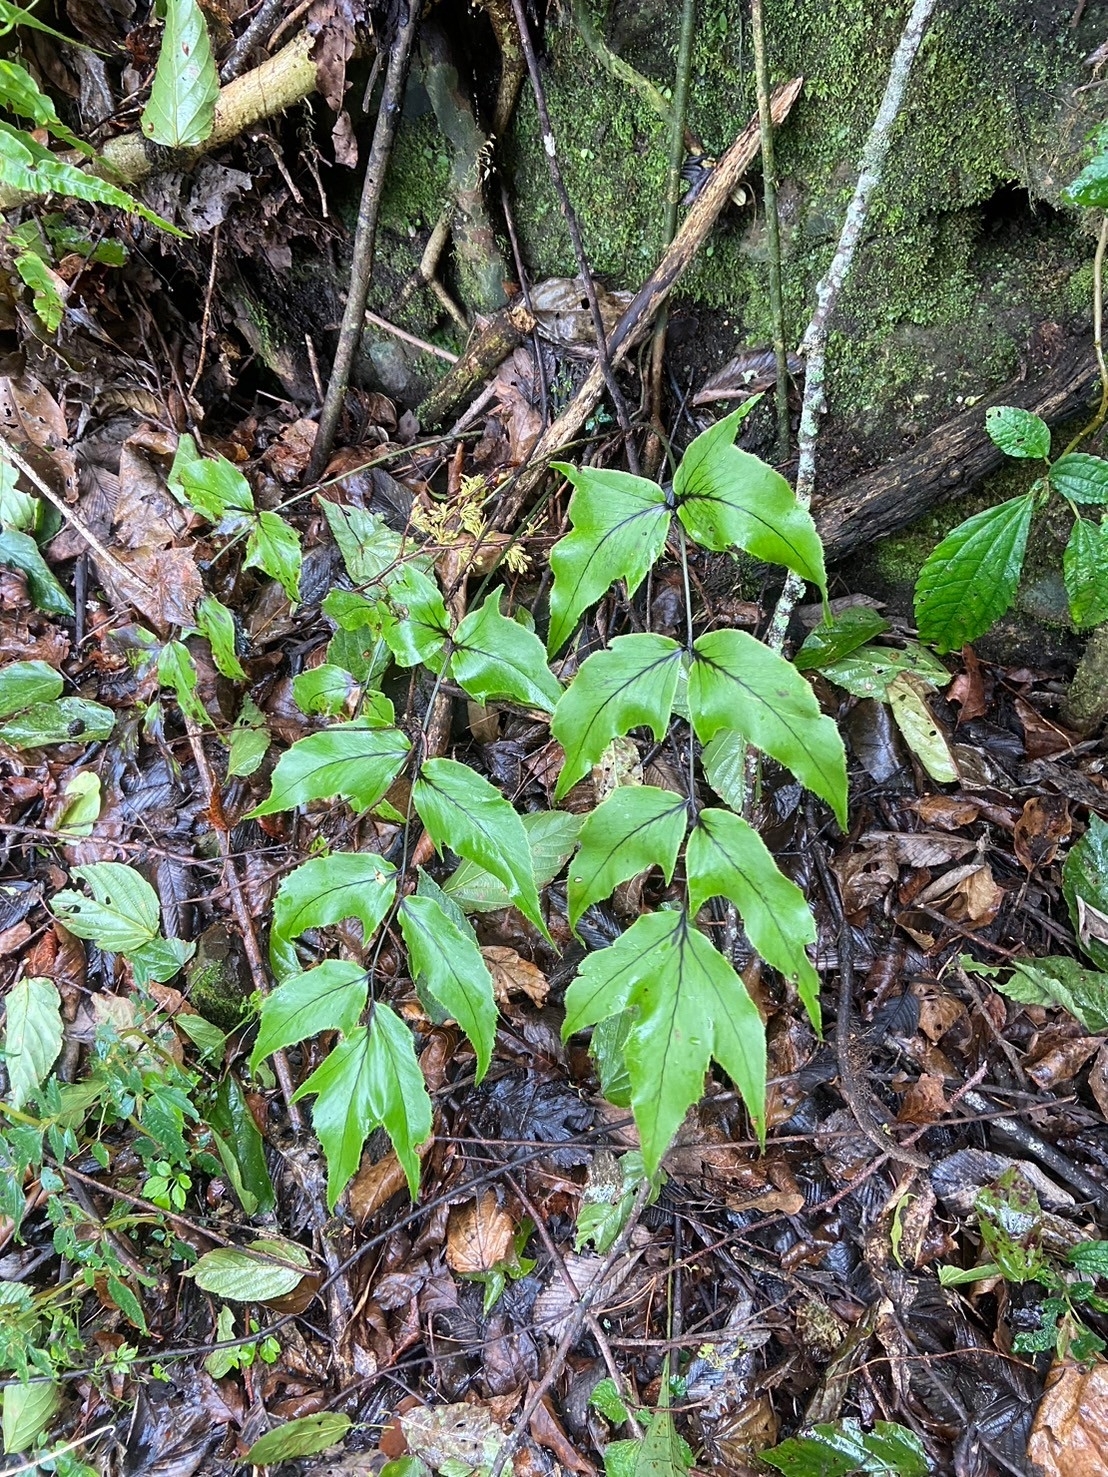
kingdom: Plantae
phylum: Tracheophyta
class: Polypodiopsida
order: Polypodiales
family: Dryopteridaceae
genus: Cyrtomium
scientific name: Cyrtomium caryotideum
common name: Asiatic holly fern
